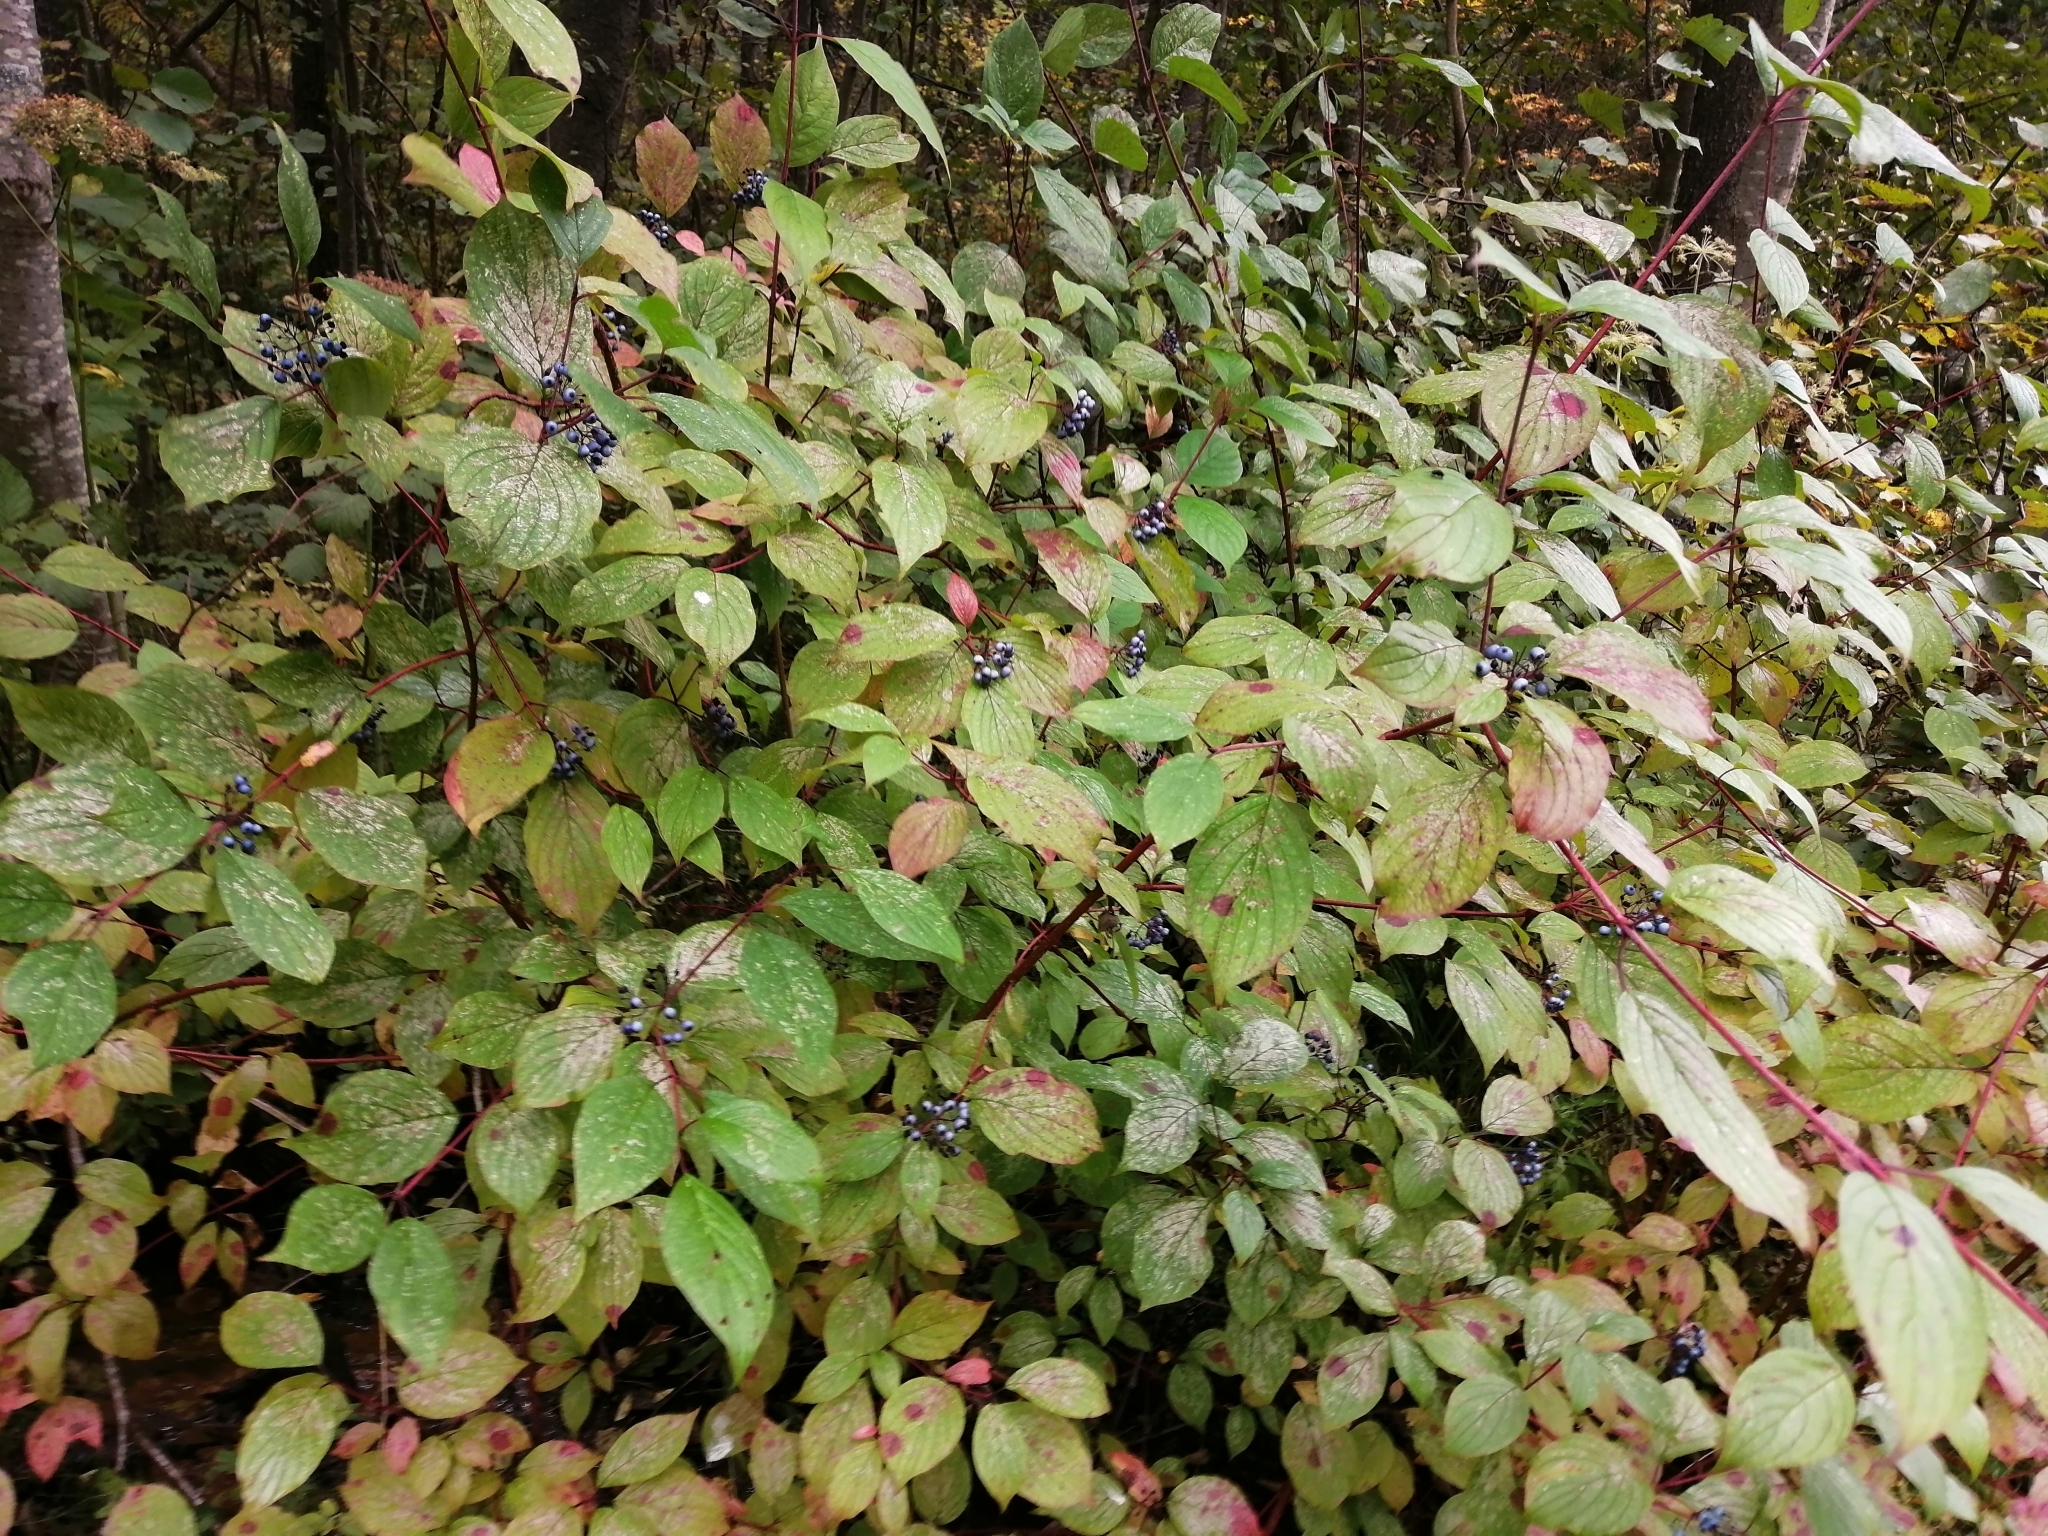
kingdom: Plantae
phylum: Tracheophyta
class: Magnoliopsida
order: Cornales
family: Cornaceae
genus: Cornus
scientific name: Cornus alba
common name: White dogwood
